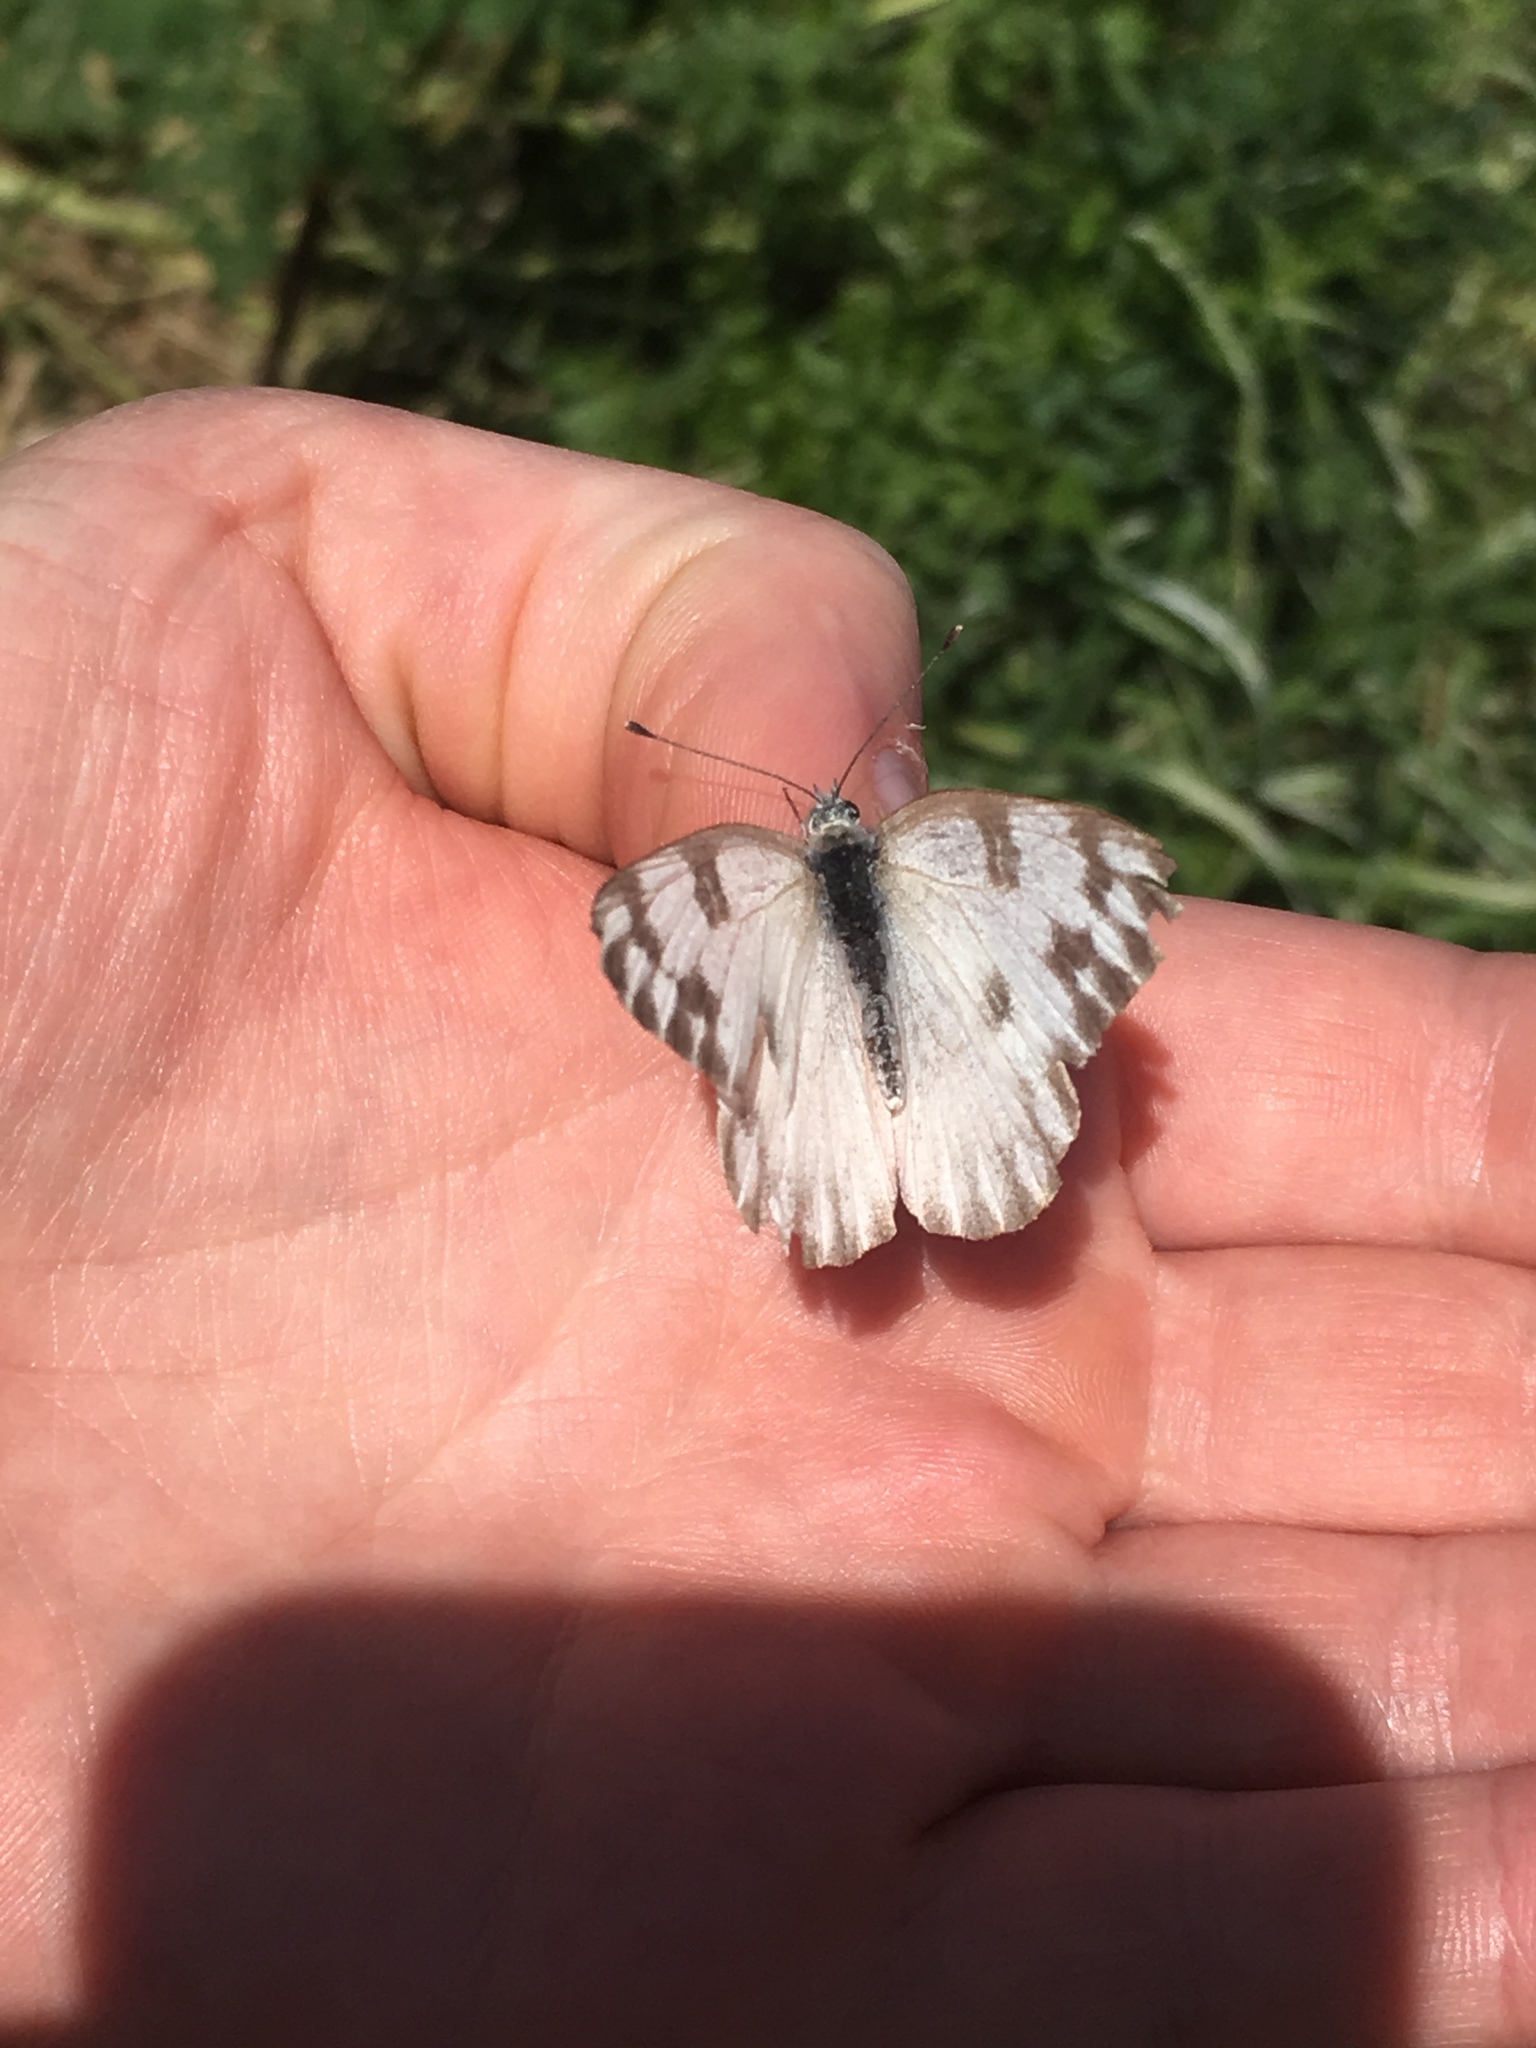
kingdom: Animalia
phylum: Arthropoda
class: Insecta
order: Lepidoptera
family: Pieridae
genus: Pontia
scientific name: Pontia protodice
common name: Checkered white
